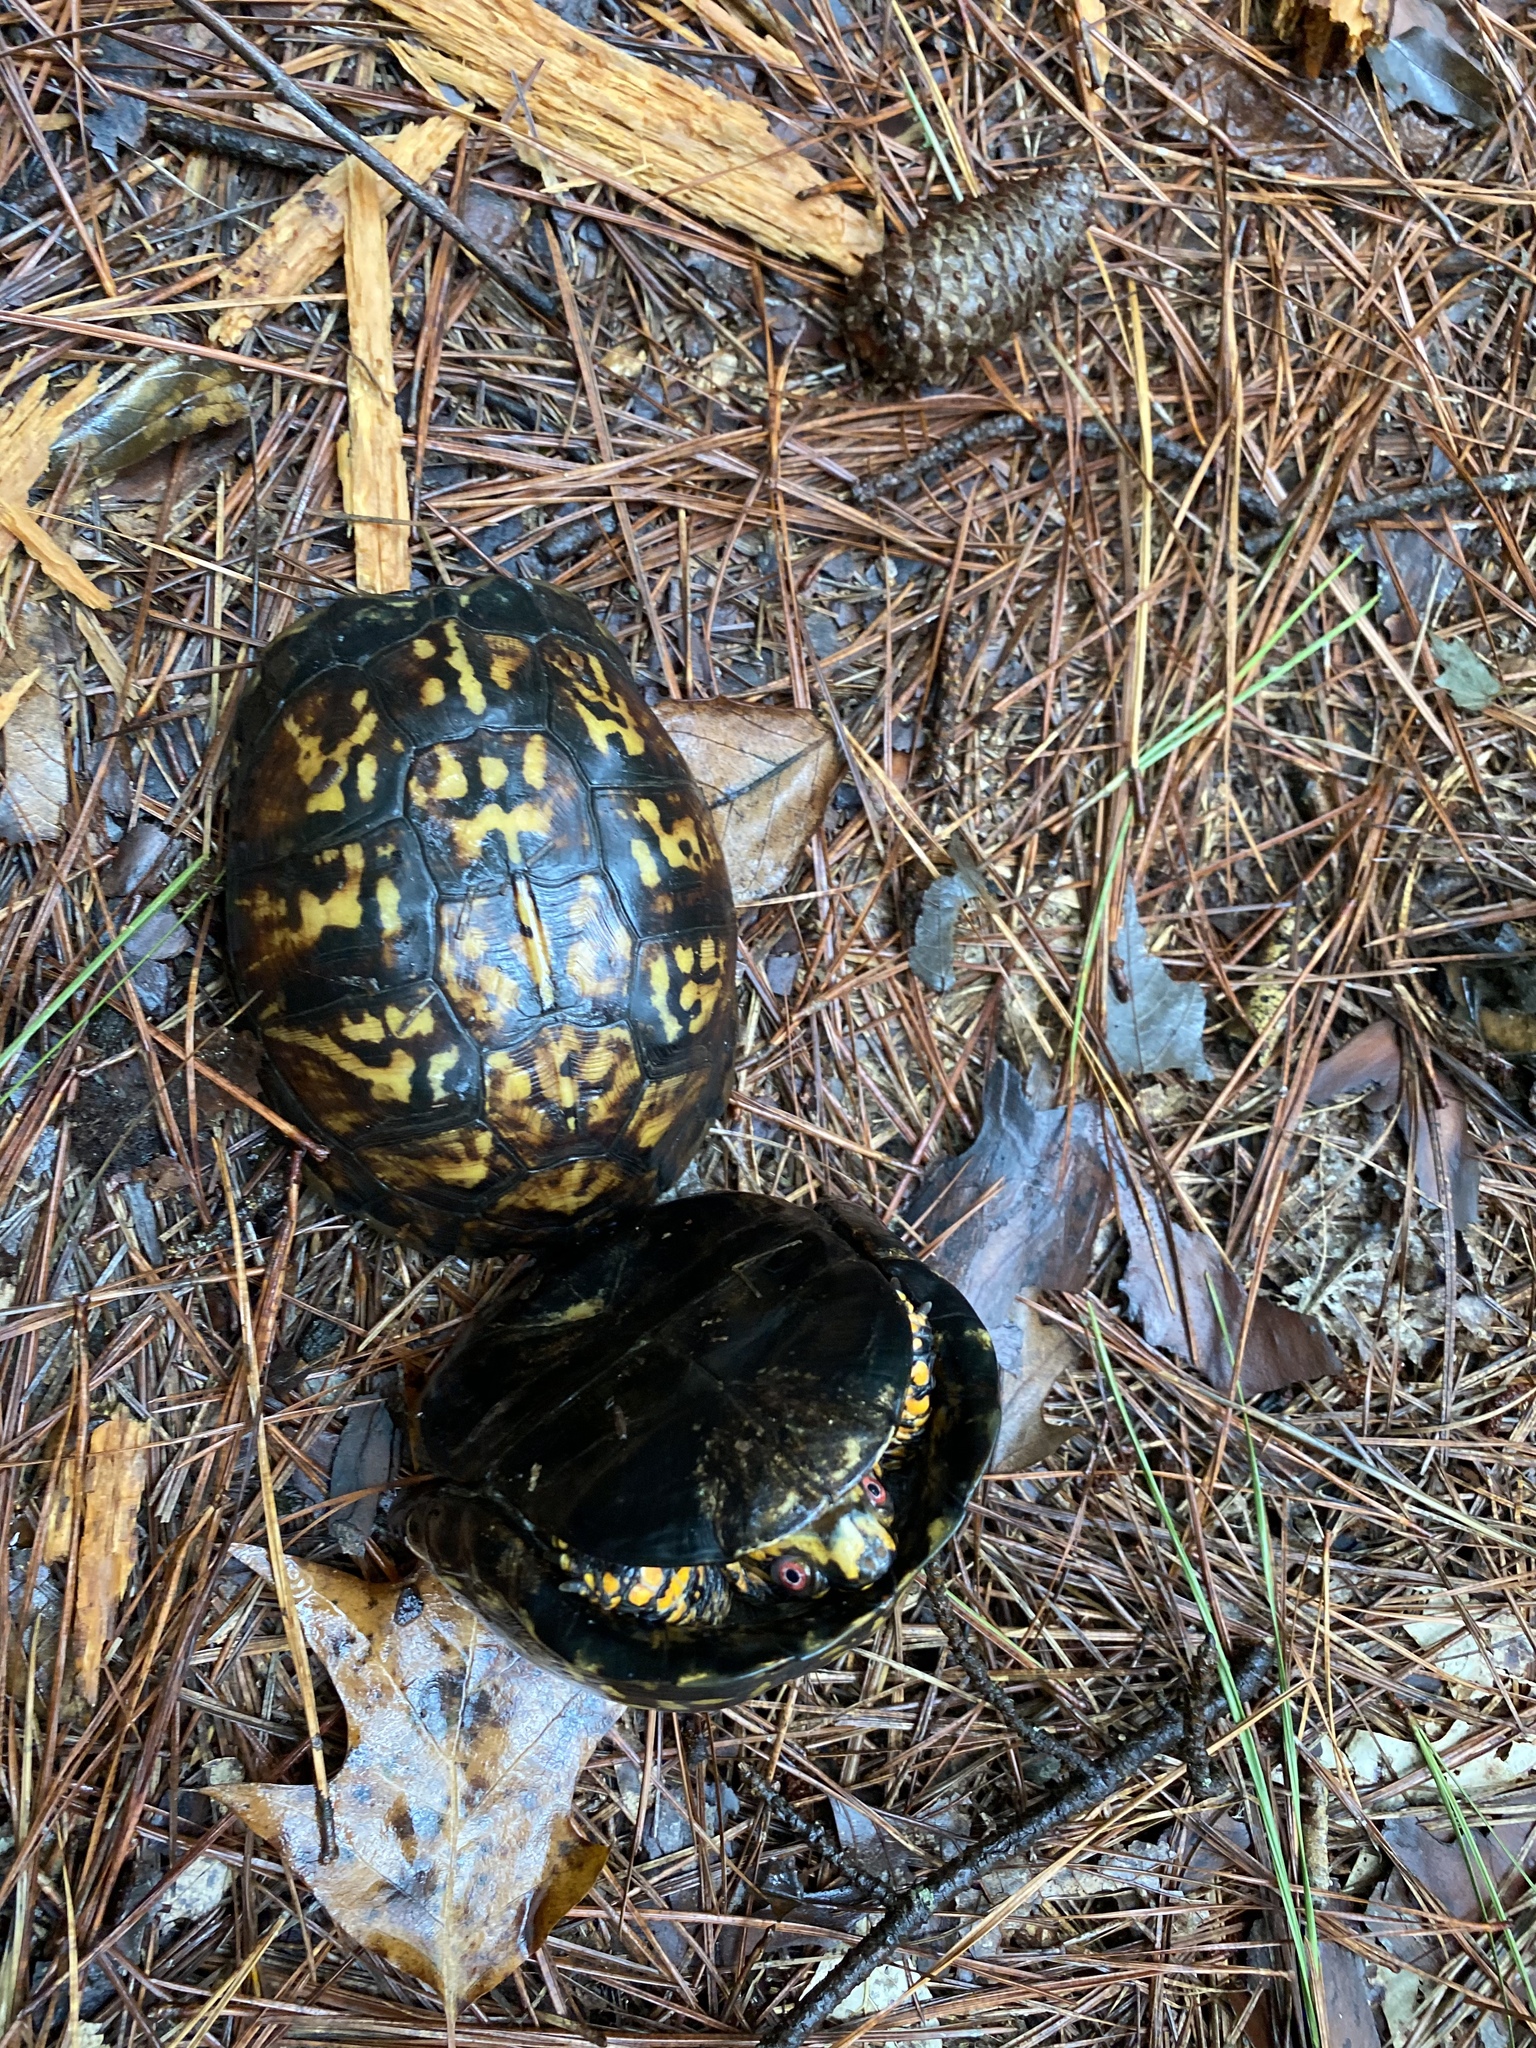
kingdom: Animalia
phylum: Chordata
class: Testudines
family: Emydidae
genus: Terrapene
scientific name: Terrapene carolina
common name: Common box turtle
